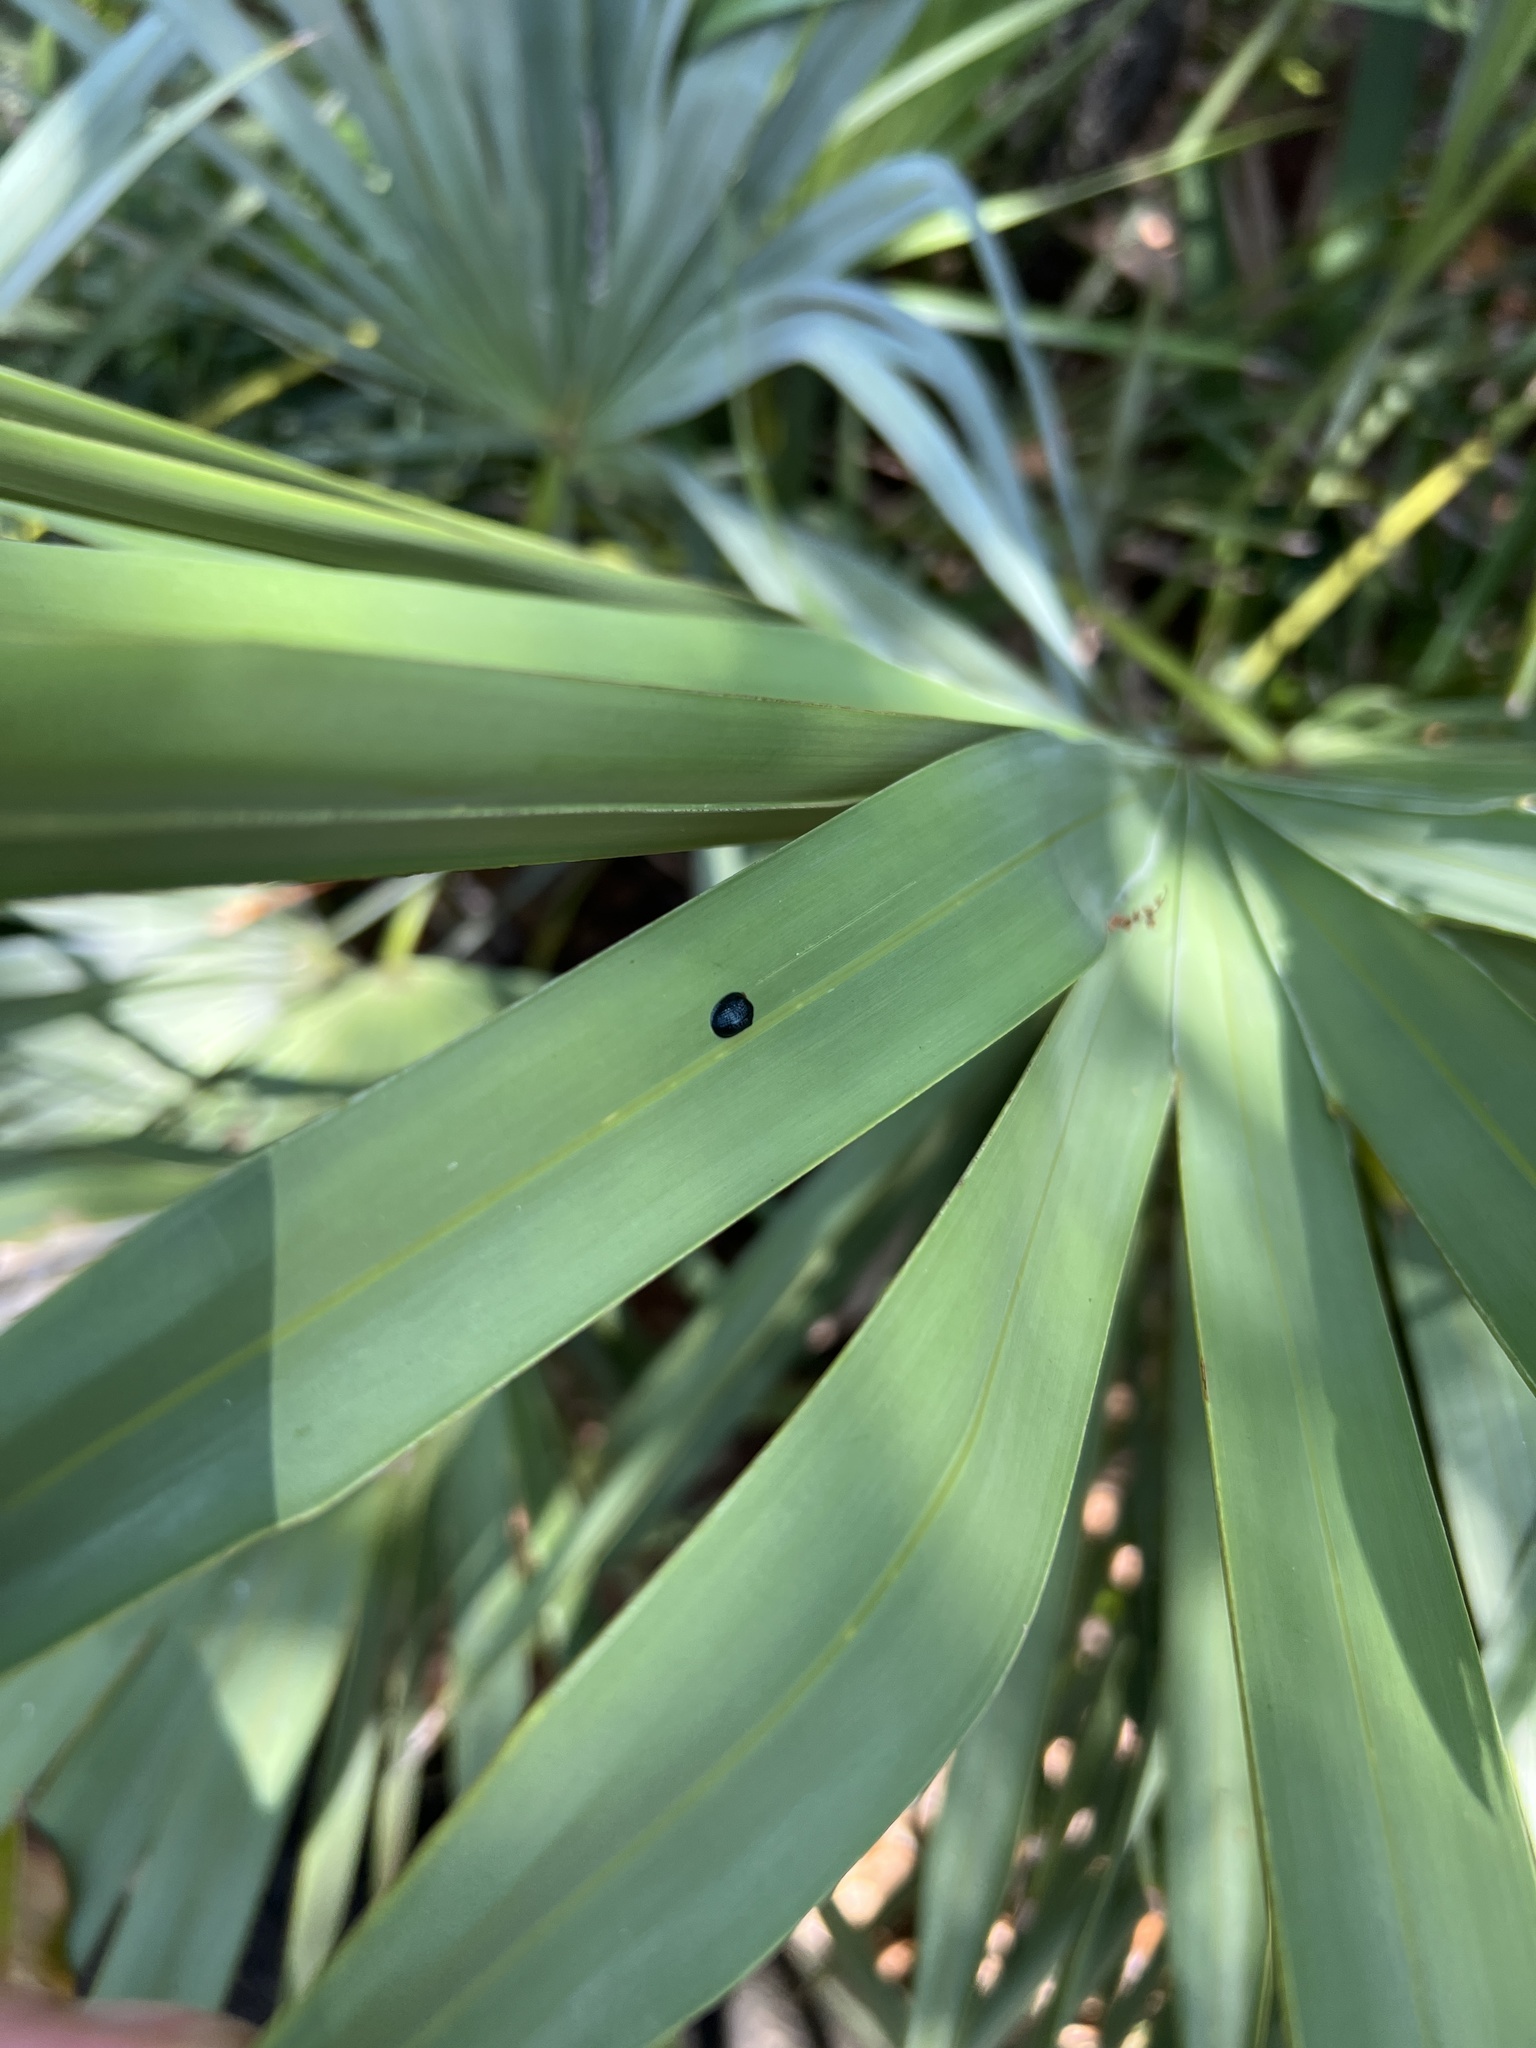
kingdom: Animalia
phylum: Arthropoda
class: Insecta
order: Coleoptera
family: Chrysomelidae
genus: Hemisphaerota
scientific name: Hemisphaerota cyanea
